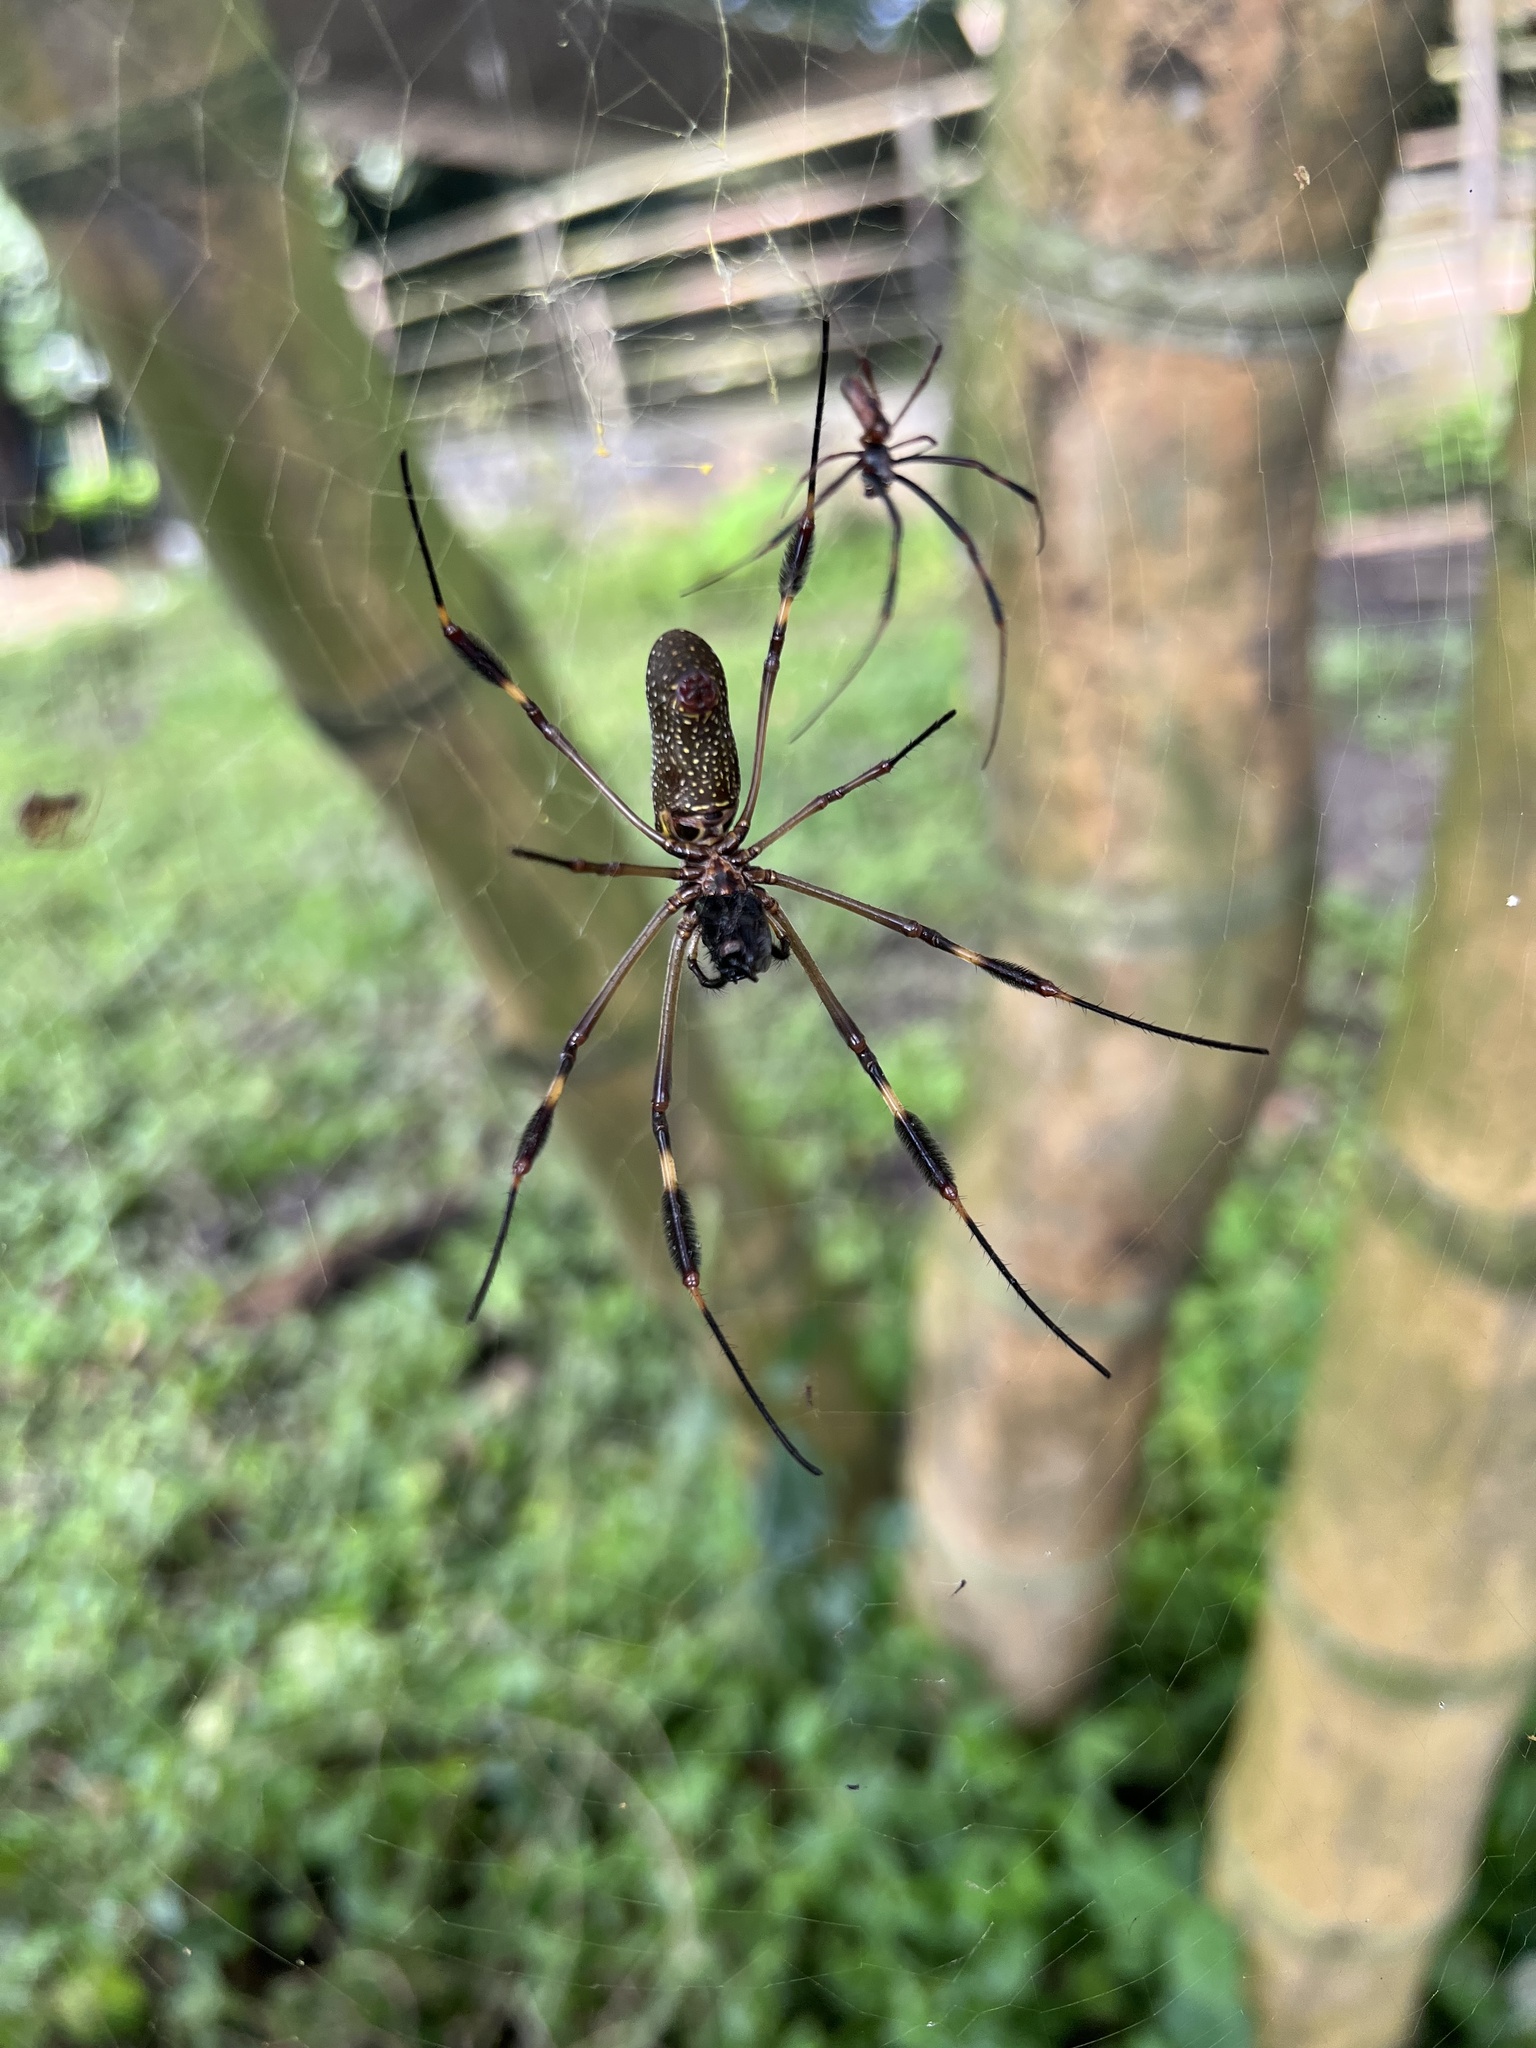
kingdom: Animalia
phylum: Arthropoda
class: Arachnida
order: Araneae
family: Araneidae
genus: Trichonephila
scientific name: Trichonephila clavipes
